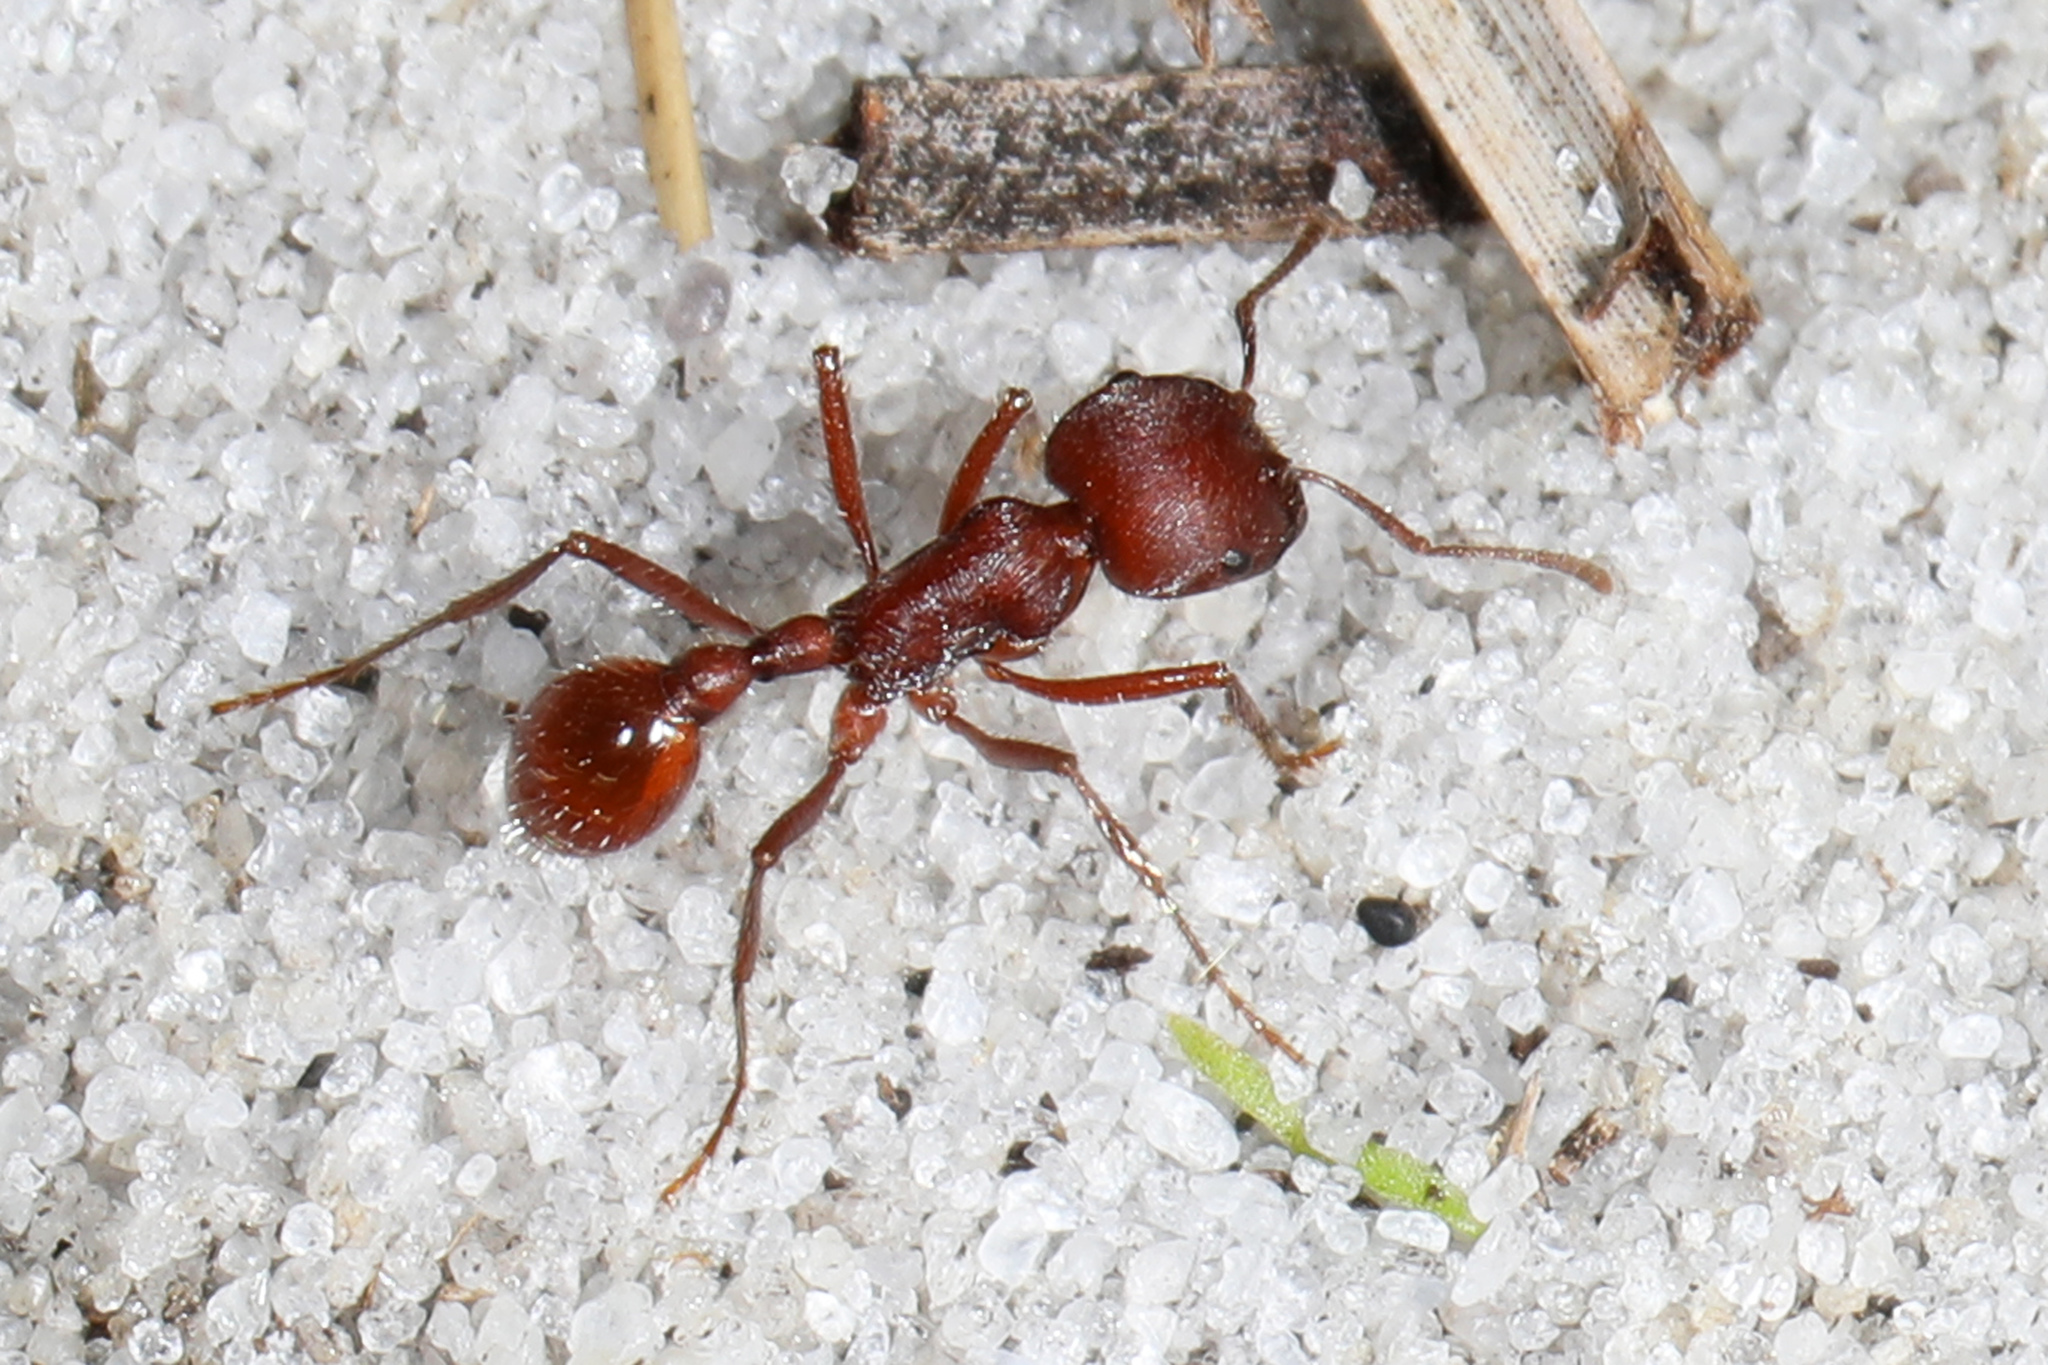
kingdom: Animalia
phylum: Arthropoda
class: Insecta
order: Hymenoptera
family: Formicidae
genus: Pogonomyrmex
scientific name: Pogonomyrmex badius
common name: Florida harvester ant
